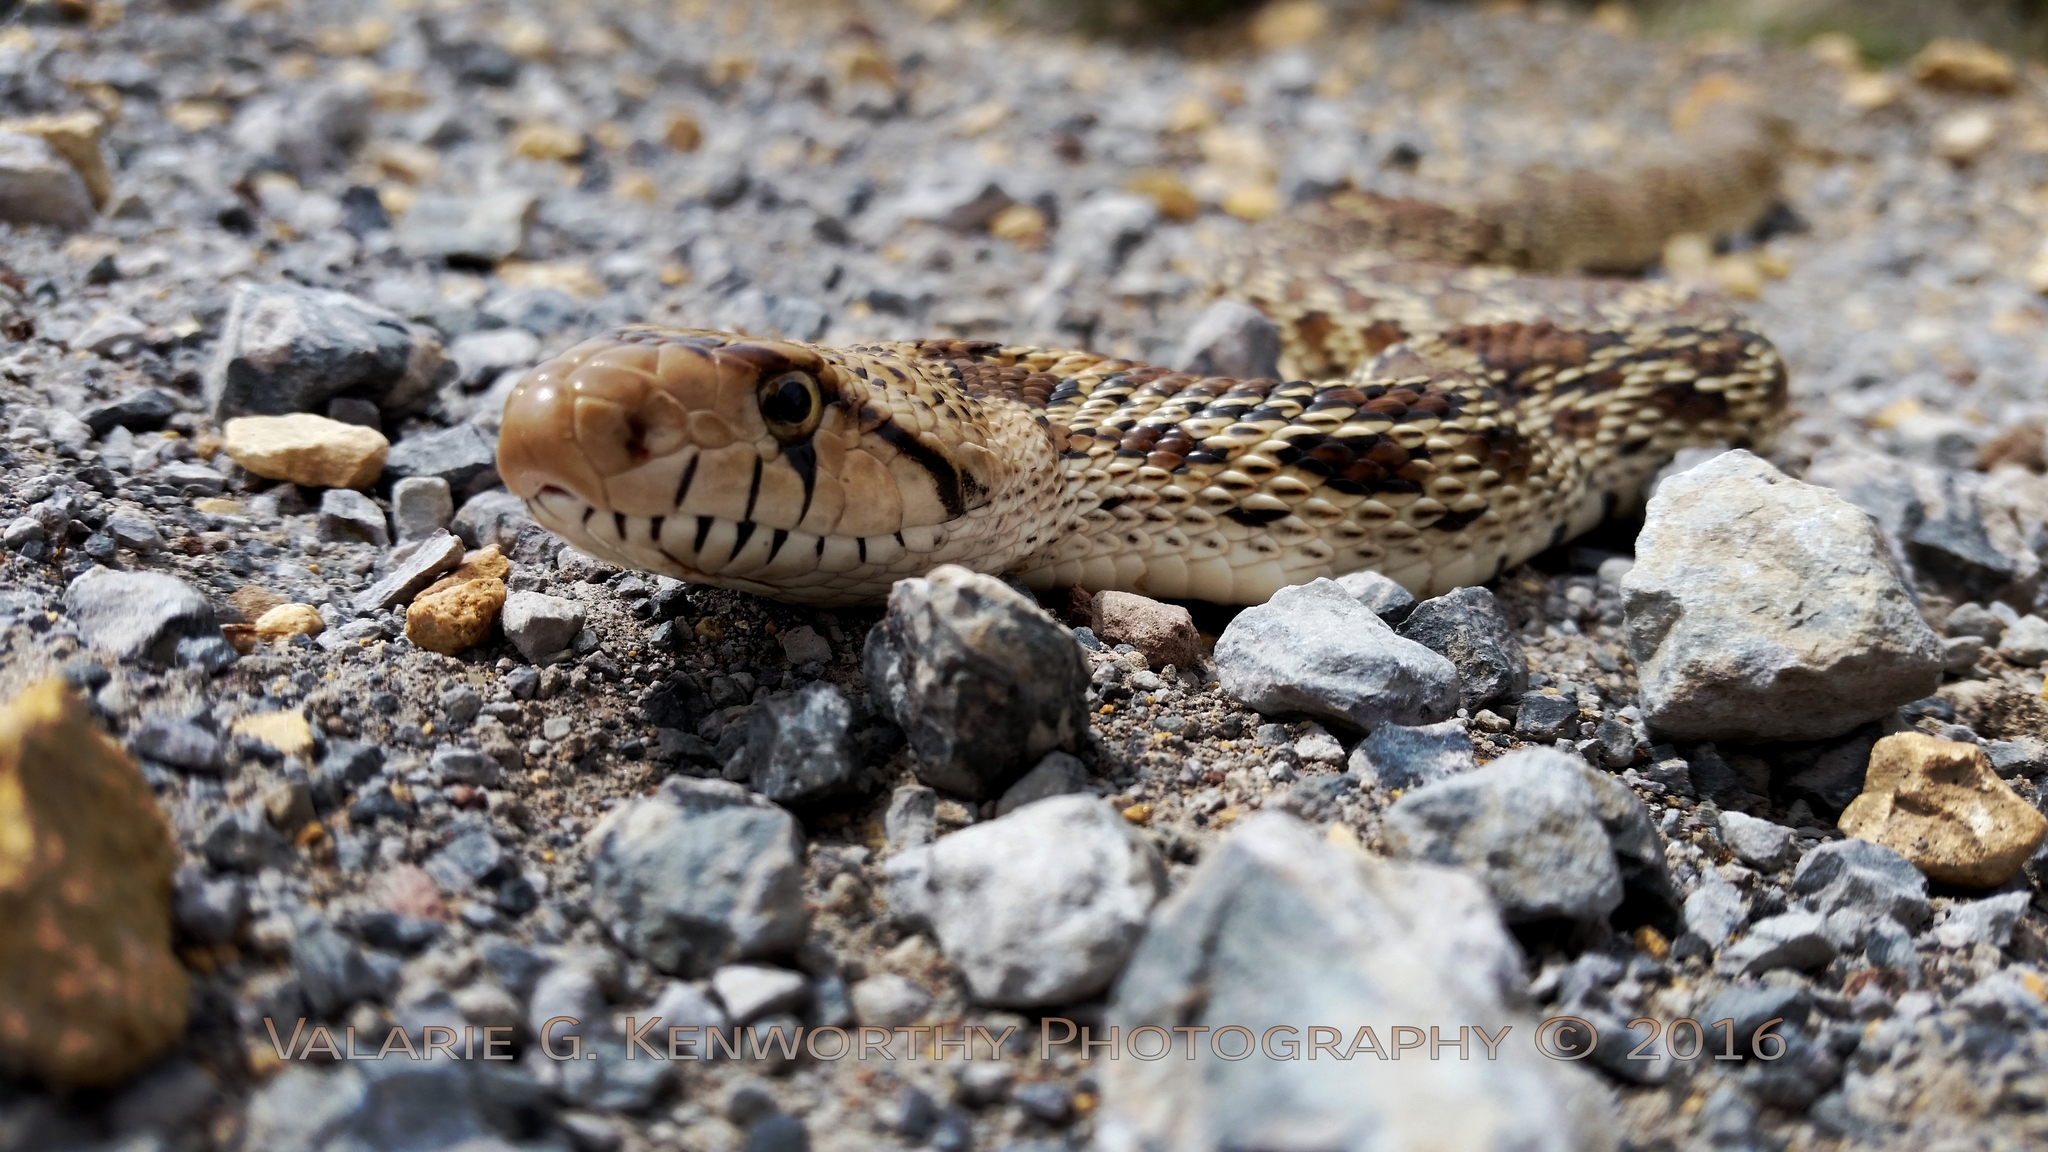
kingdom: Animalia
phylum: Chordata
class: Squamata
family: Colubridae
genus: Pituophis
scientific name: Pituophis catenifer
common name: Gopher snake
